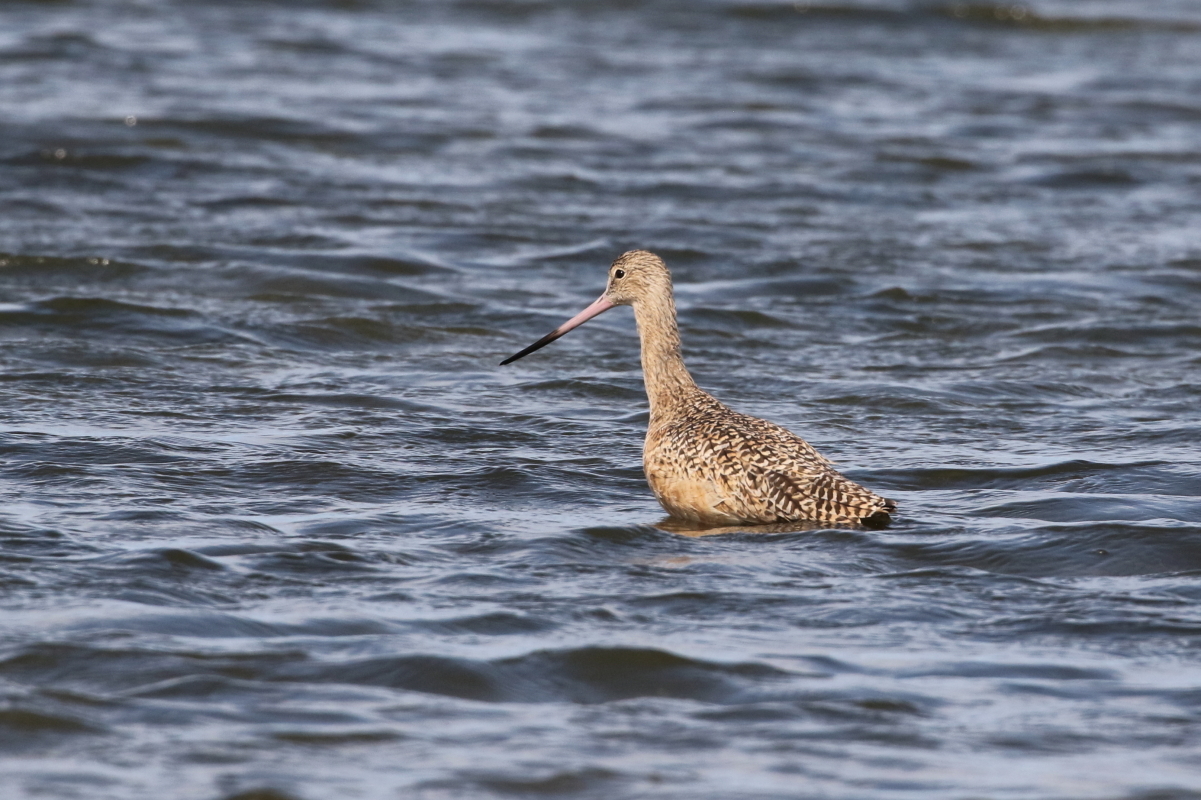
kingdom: Animalia
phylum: Chordata
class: Aves
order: Charadriiformes
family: Scolopacidae
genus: Limosa
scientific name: Limosa fedoa
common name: Marbled godwit
